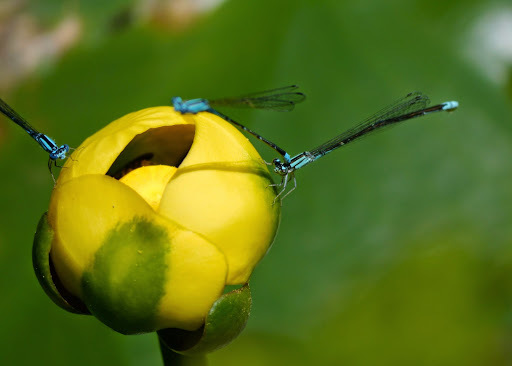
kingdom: Animalia
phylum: Arthropoda
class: Insecta
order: Odonata
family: Coenagrionidae
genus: Enallagma
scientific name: Enallagma divagans
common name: Turquoise bluet
